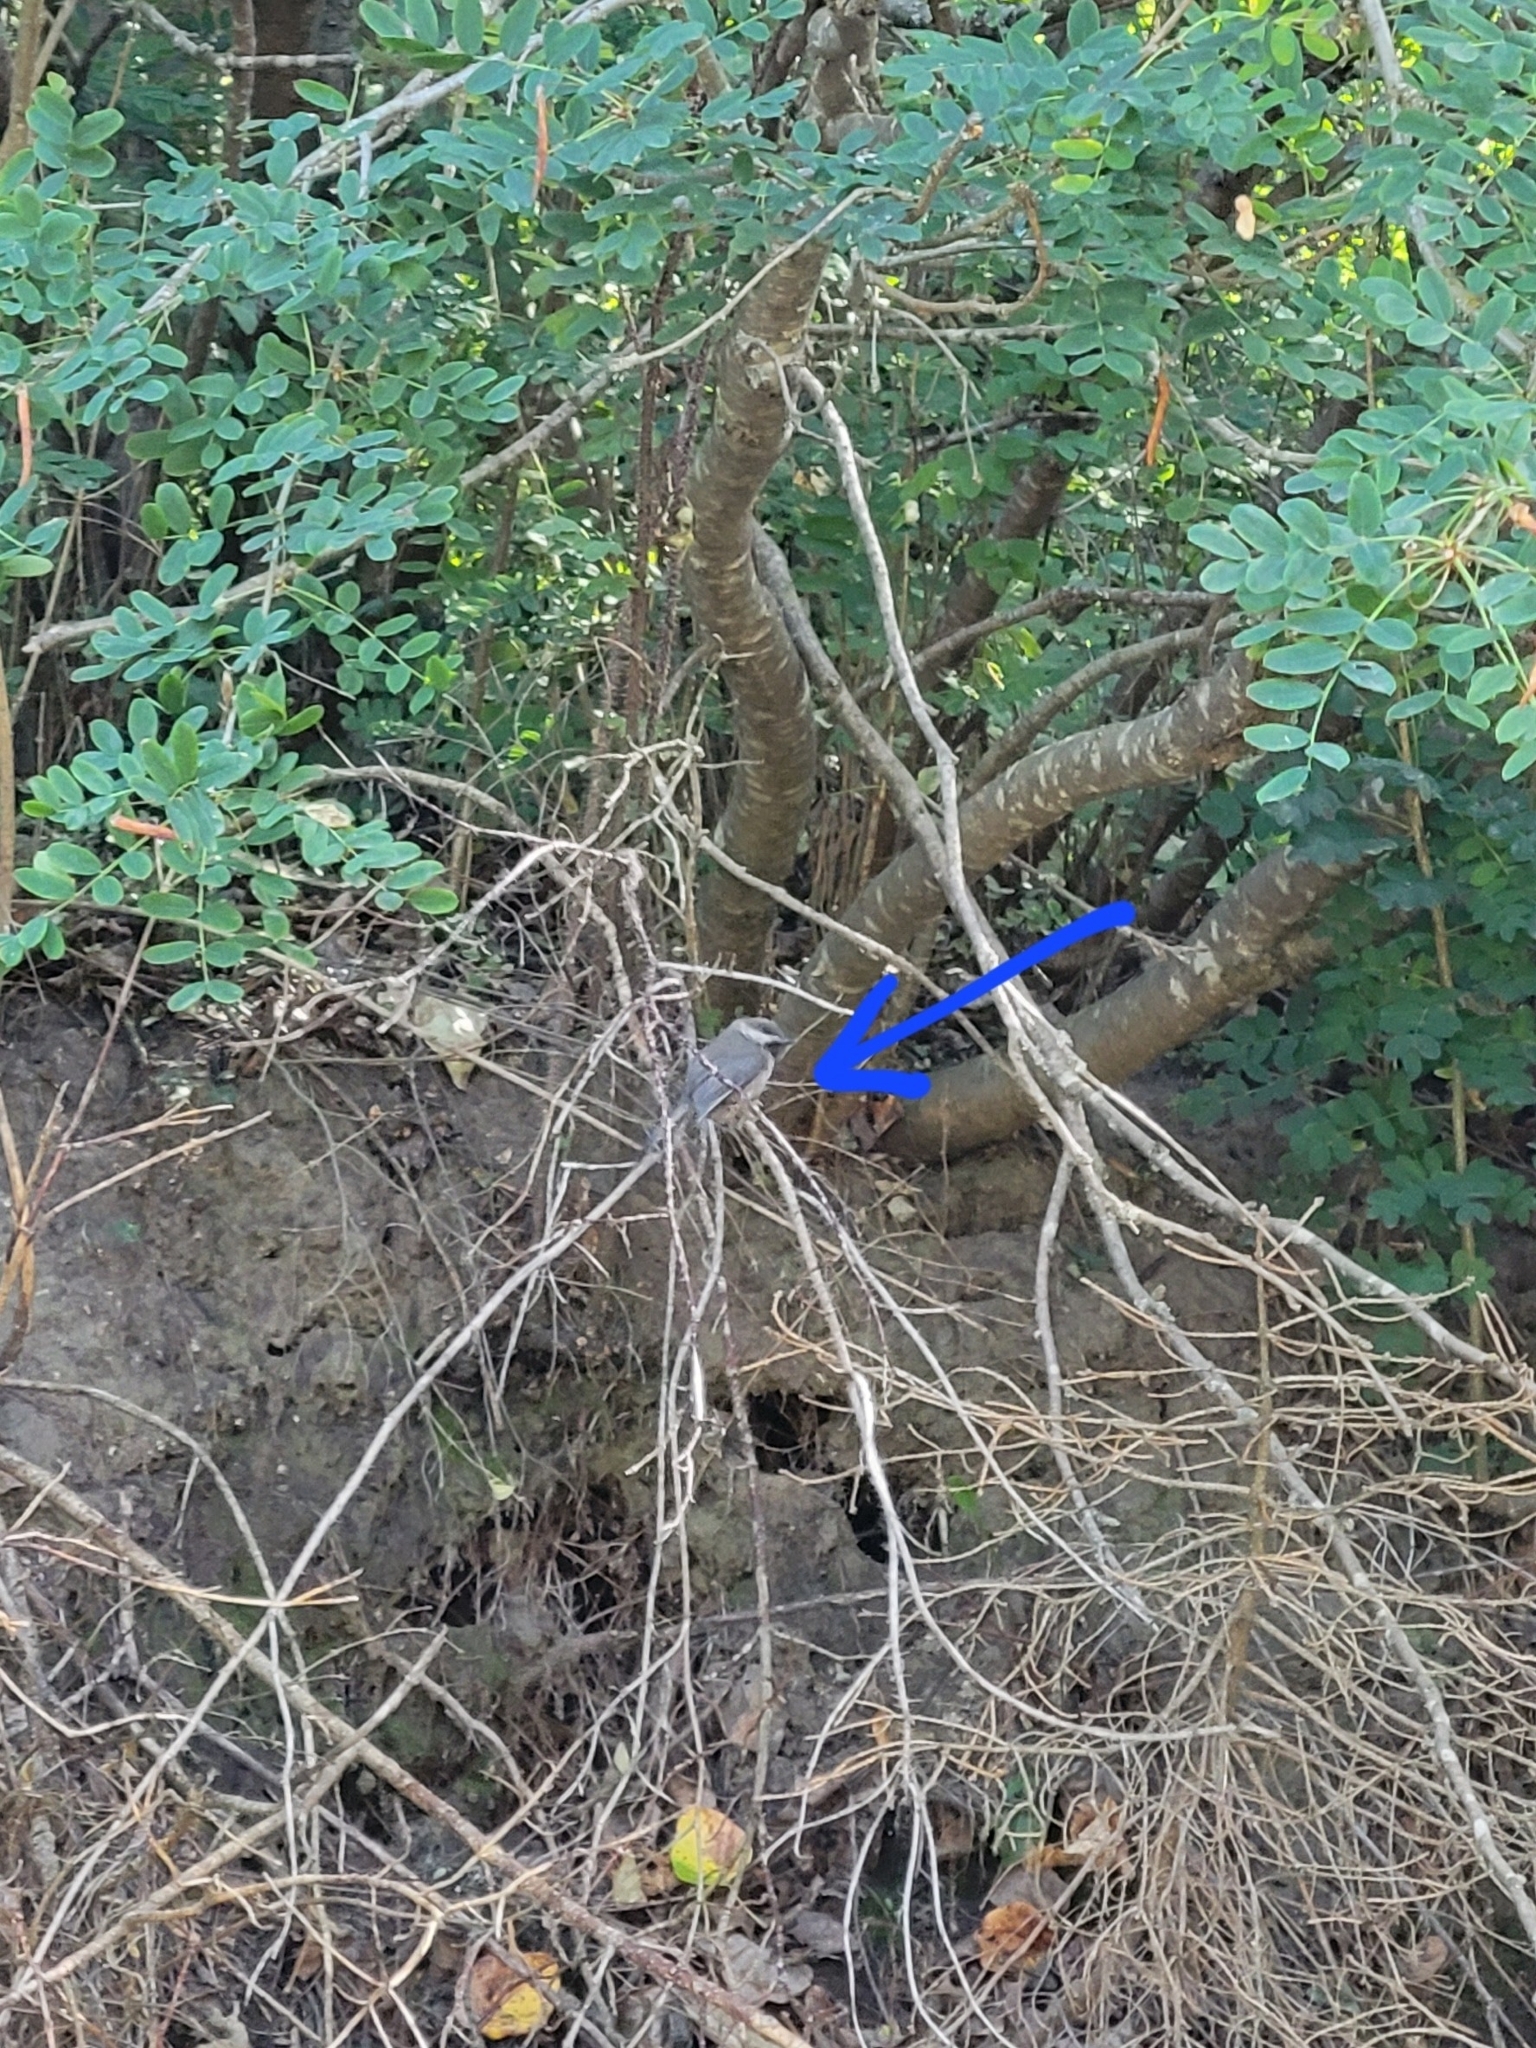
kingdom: Animalia
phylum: Chordata
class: Aves
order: Passeriformes
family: Paridae
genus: Poecile
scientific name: Poecile hudsonicus
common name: Boreal chickadee
